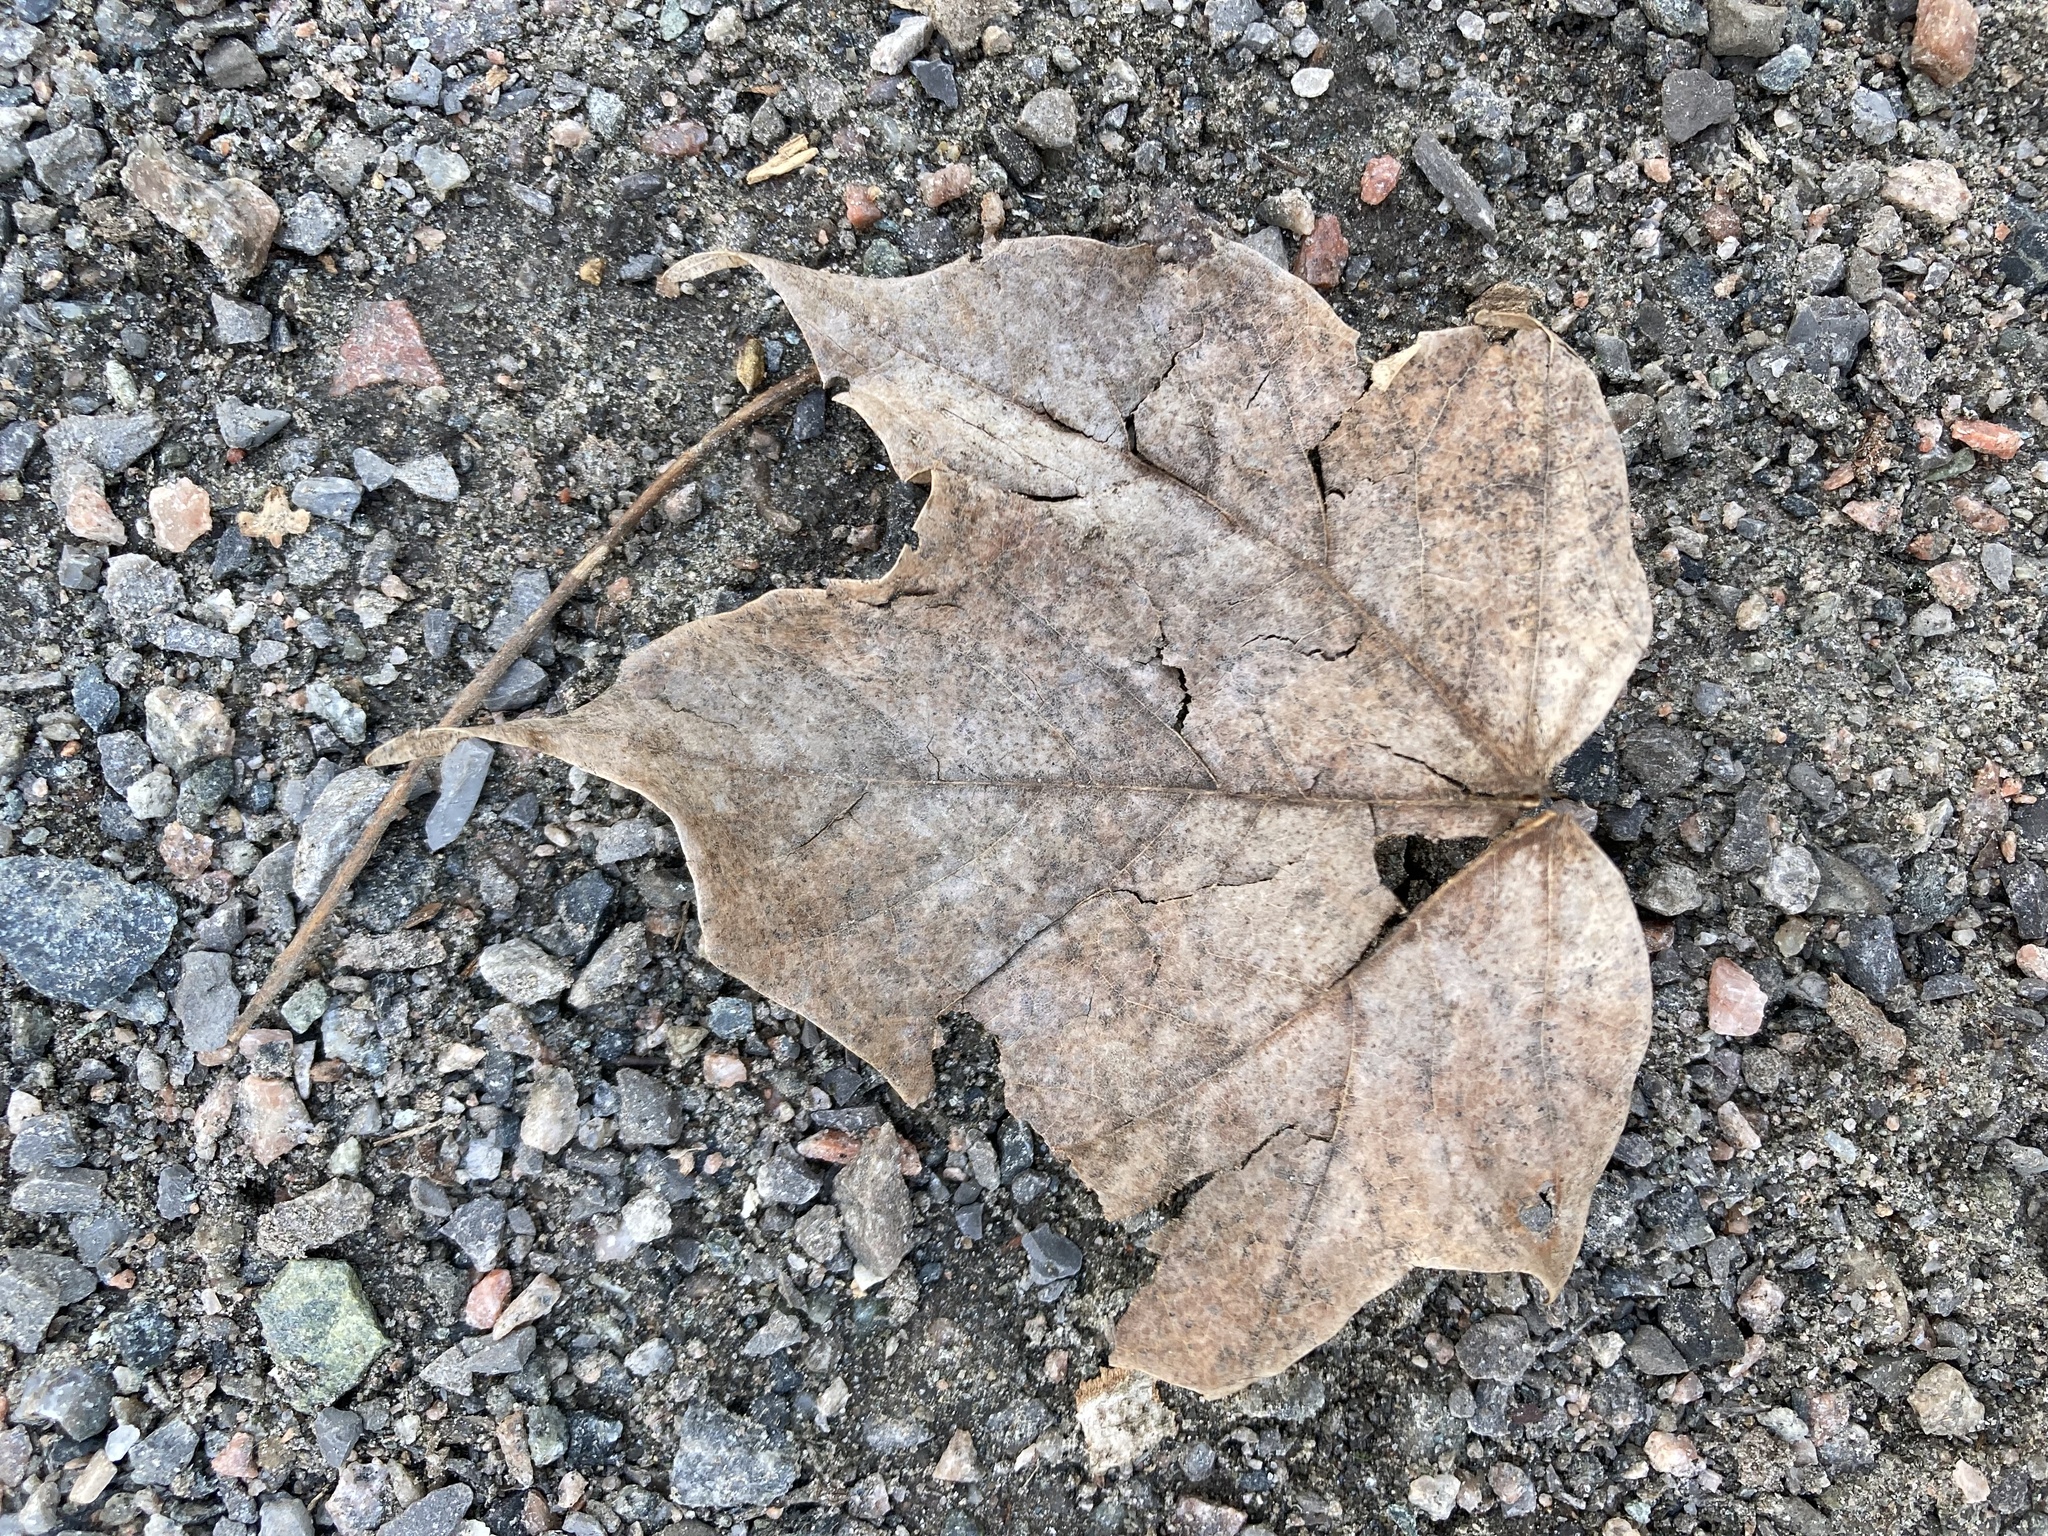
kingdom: Plantae
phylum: Tracheophyta
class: Magnoliopsida
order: Sapindales
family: Sapindaceae
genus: Acer
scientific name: Acer
